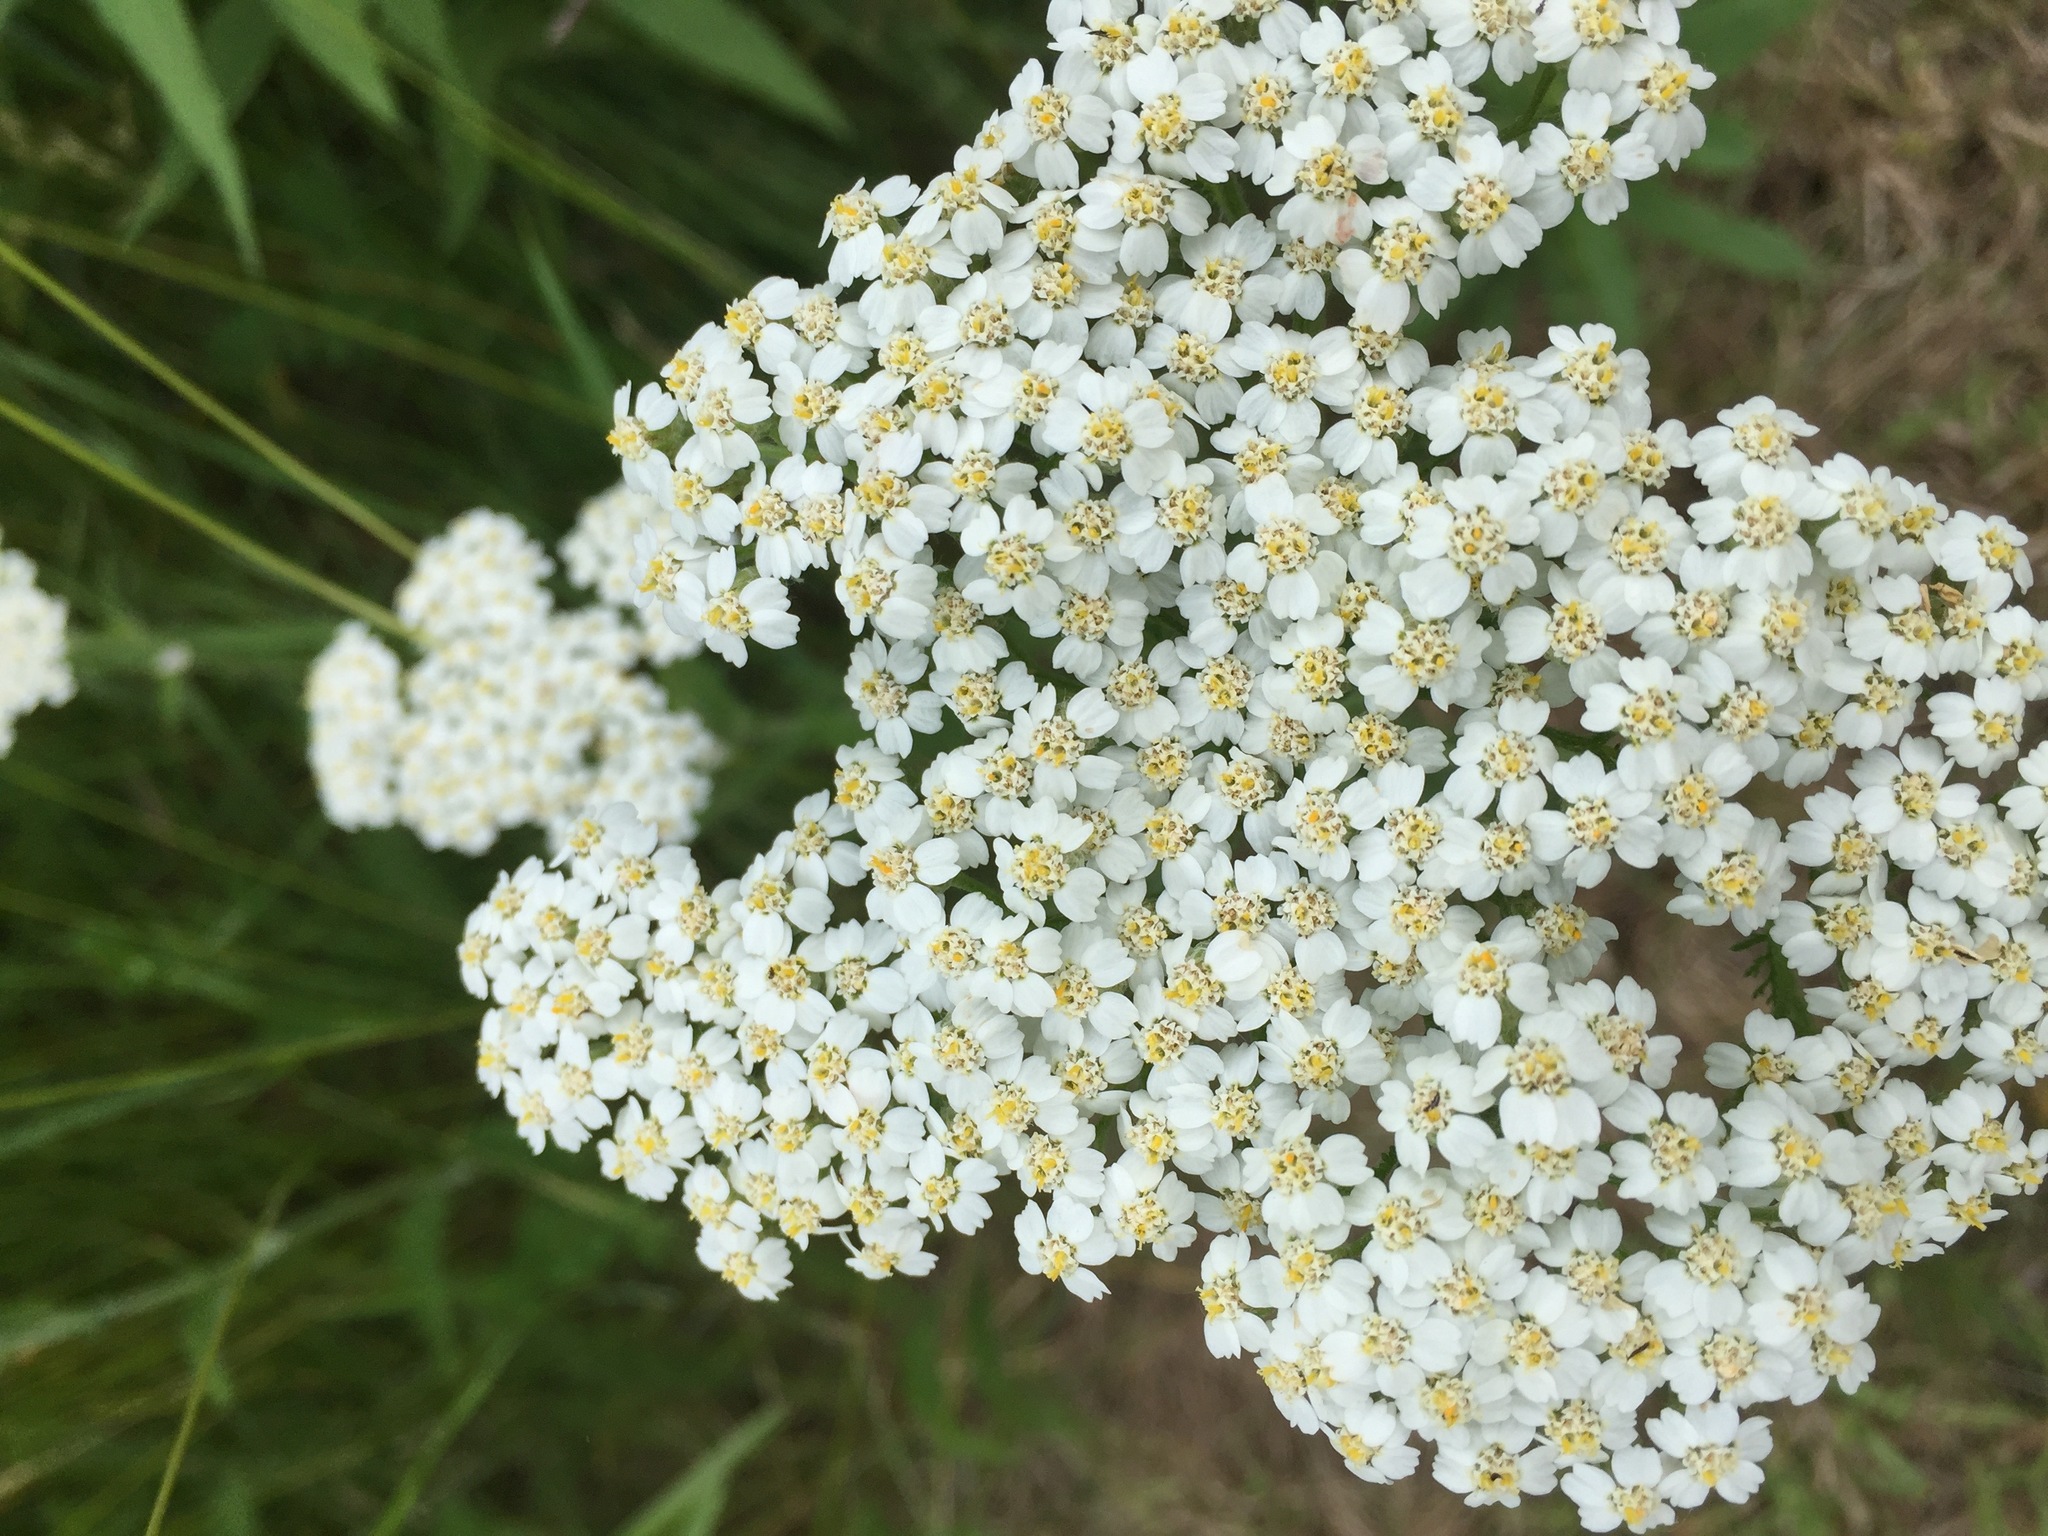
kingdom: Plantae
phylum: Tracheophyta
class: Magnoliopsida
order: Asterales
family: Asteraceae
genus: Achillea
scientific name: Achillea millefolium
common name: Yarrow
